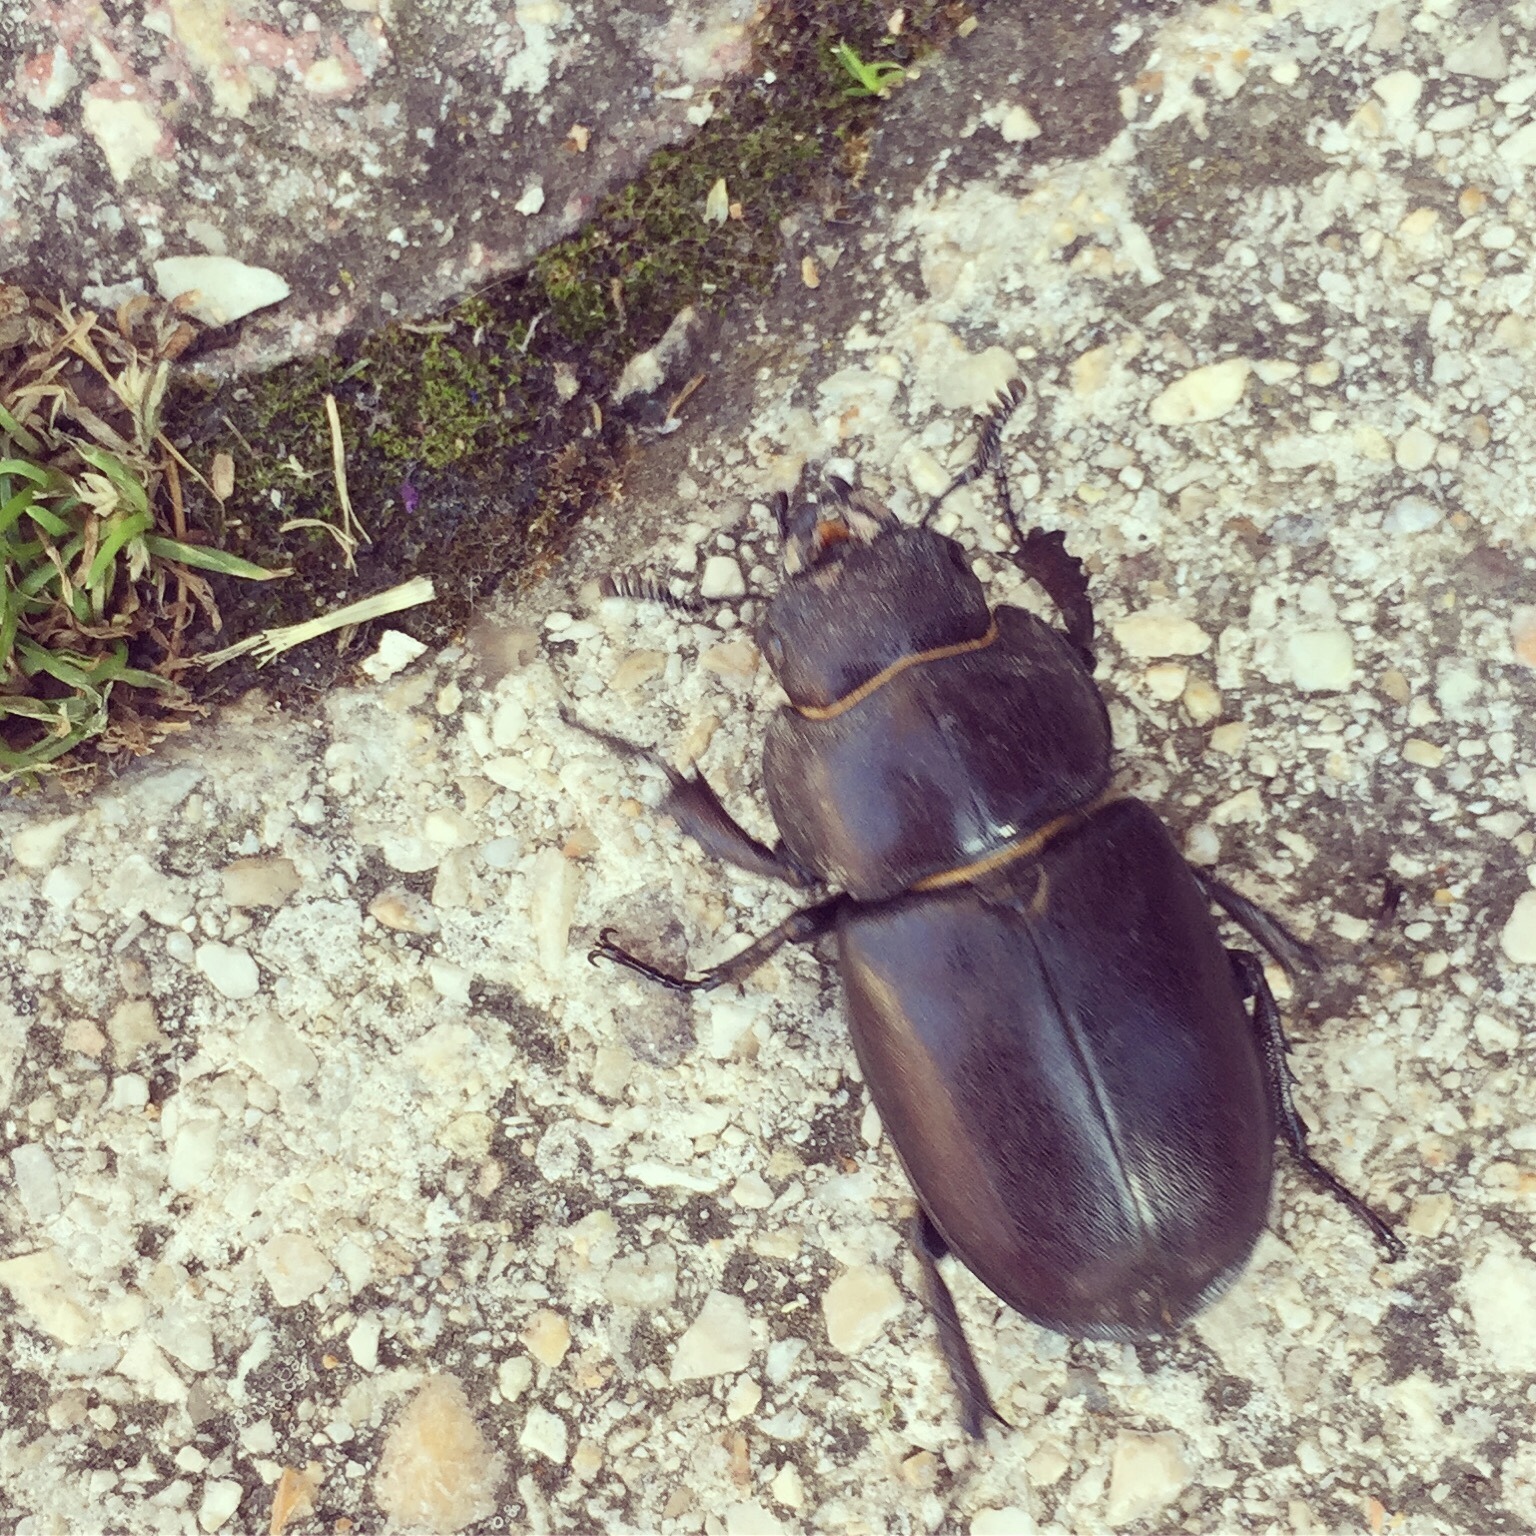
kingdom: Animalia
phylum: Arthropoda
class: Insecta
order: Coleoptera
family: Lucanidae
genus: Lucanus
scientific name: Lucanus tetraodon
